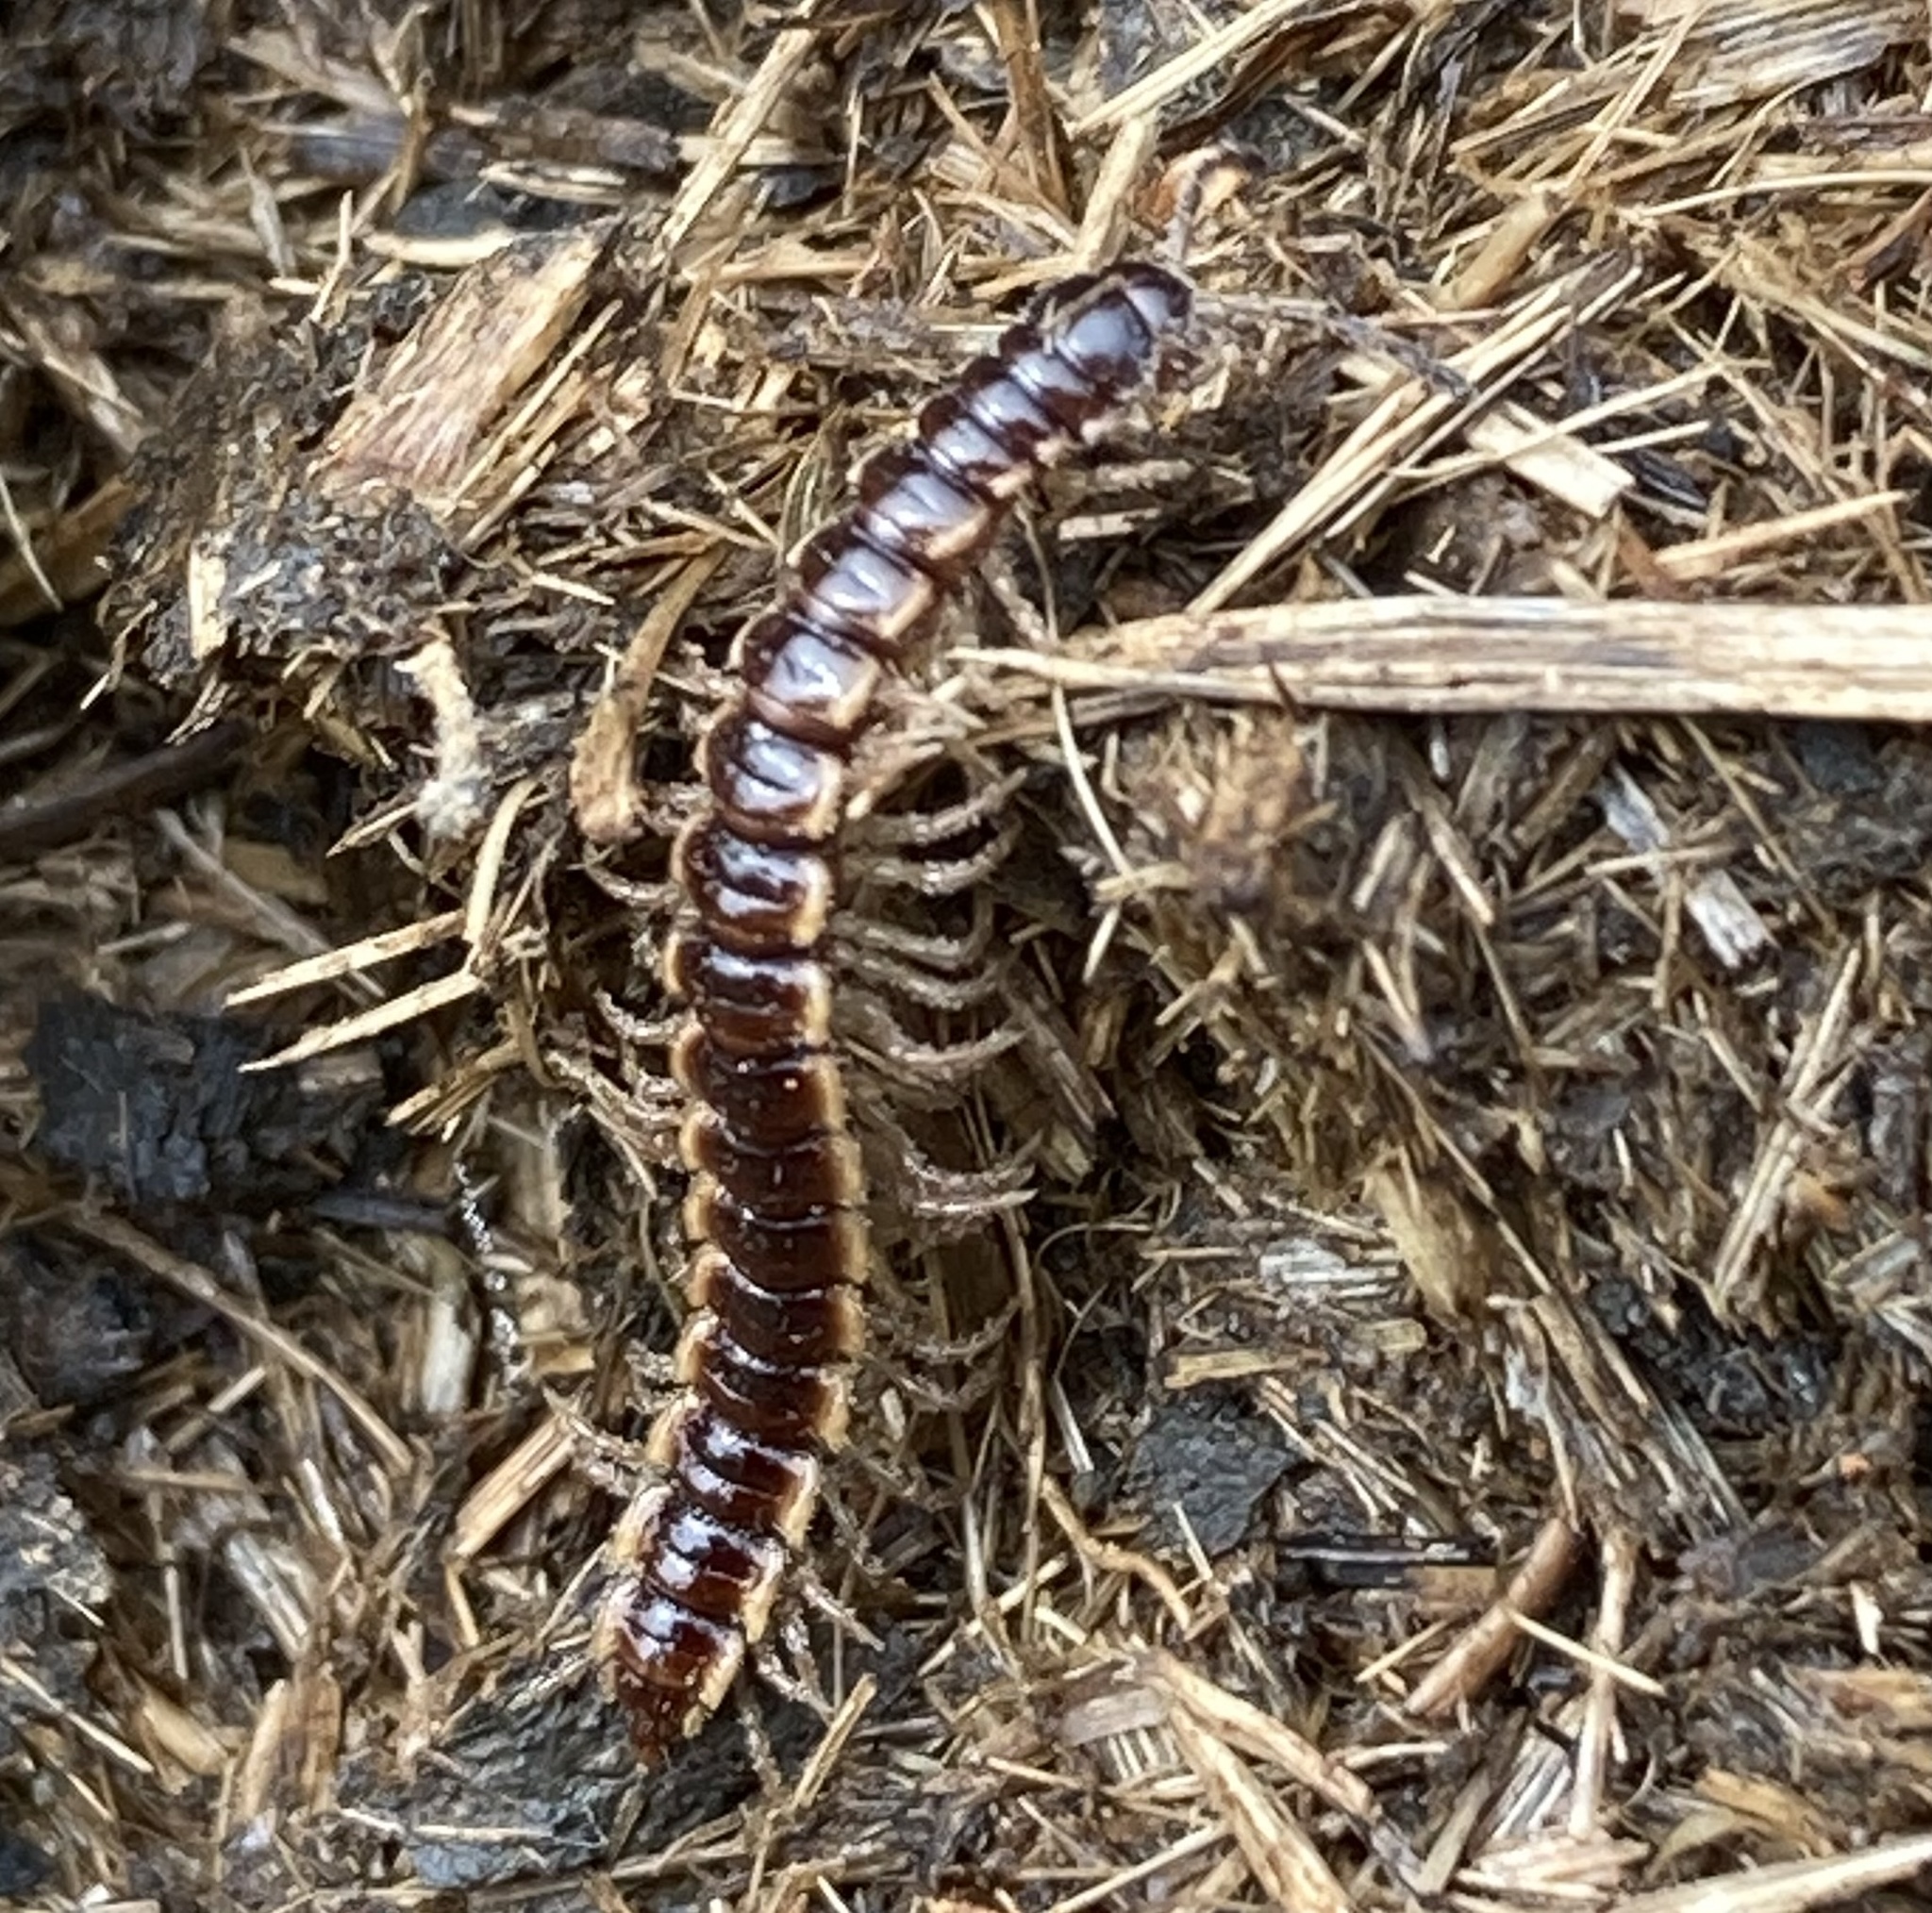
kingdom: Animalia
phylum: Arthropoda
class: Diplopoda
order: Polydesmida
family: Paradoxosomatidae
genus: Oxidus
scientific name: Oxidus gracilis
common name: Greenhouse millipede
